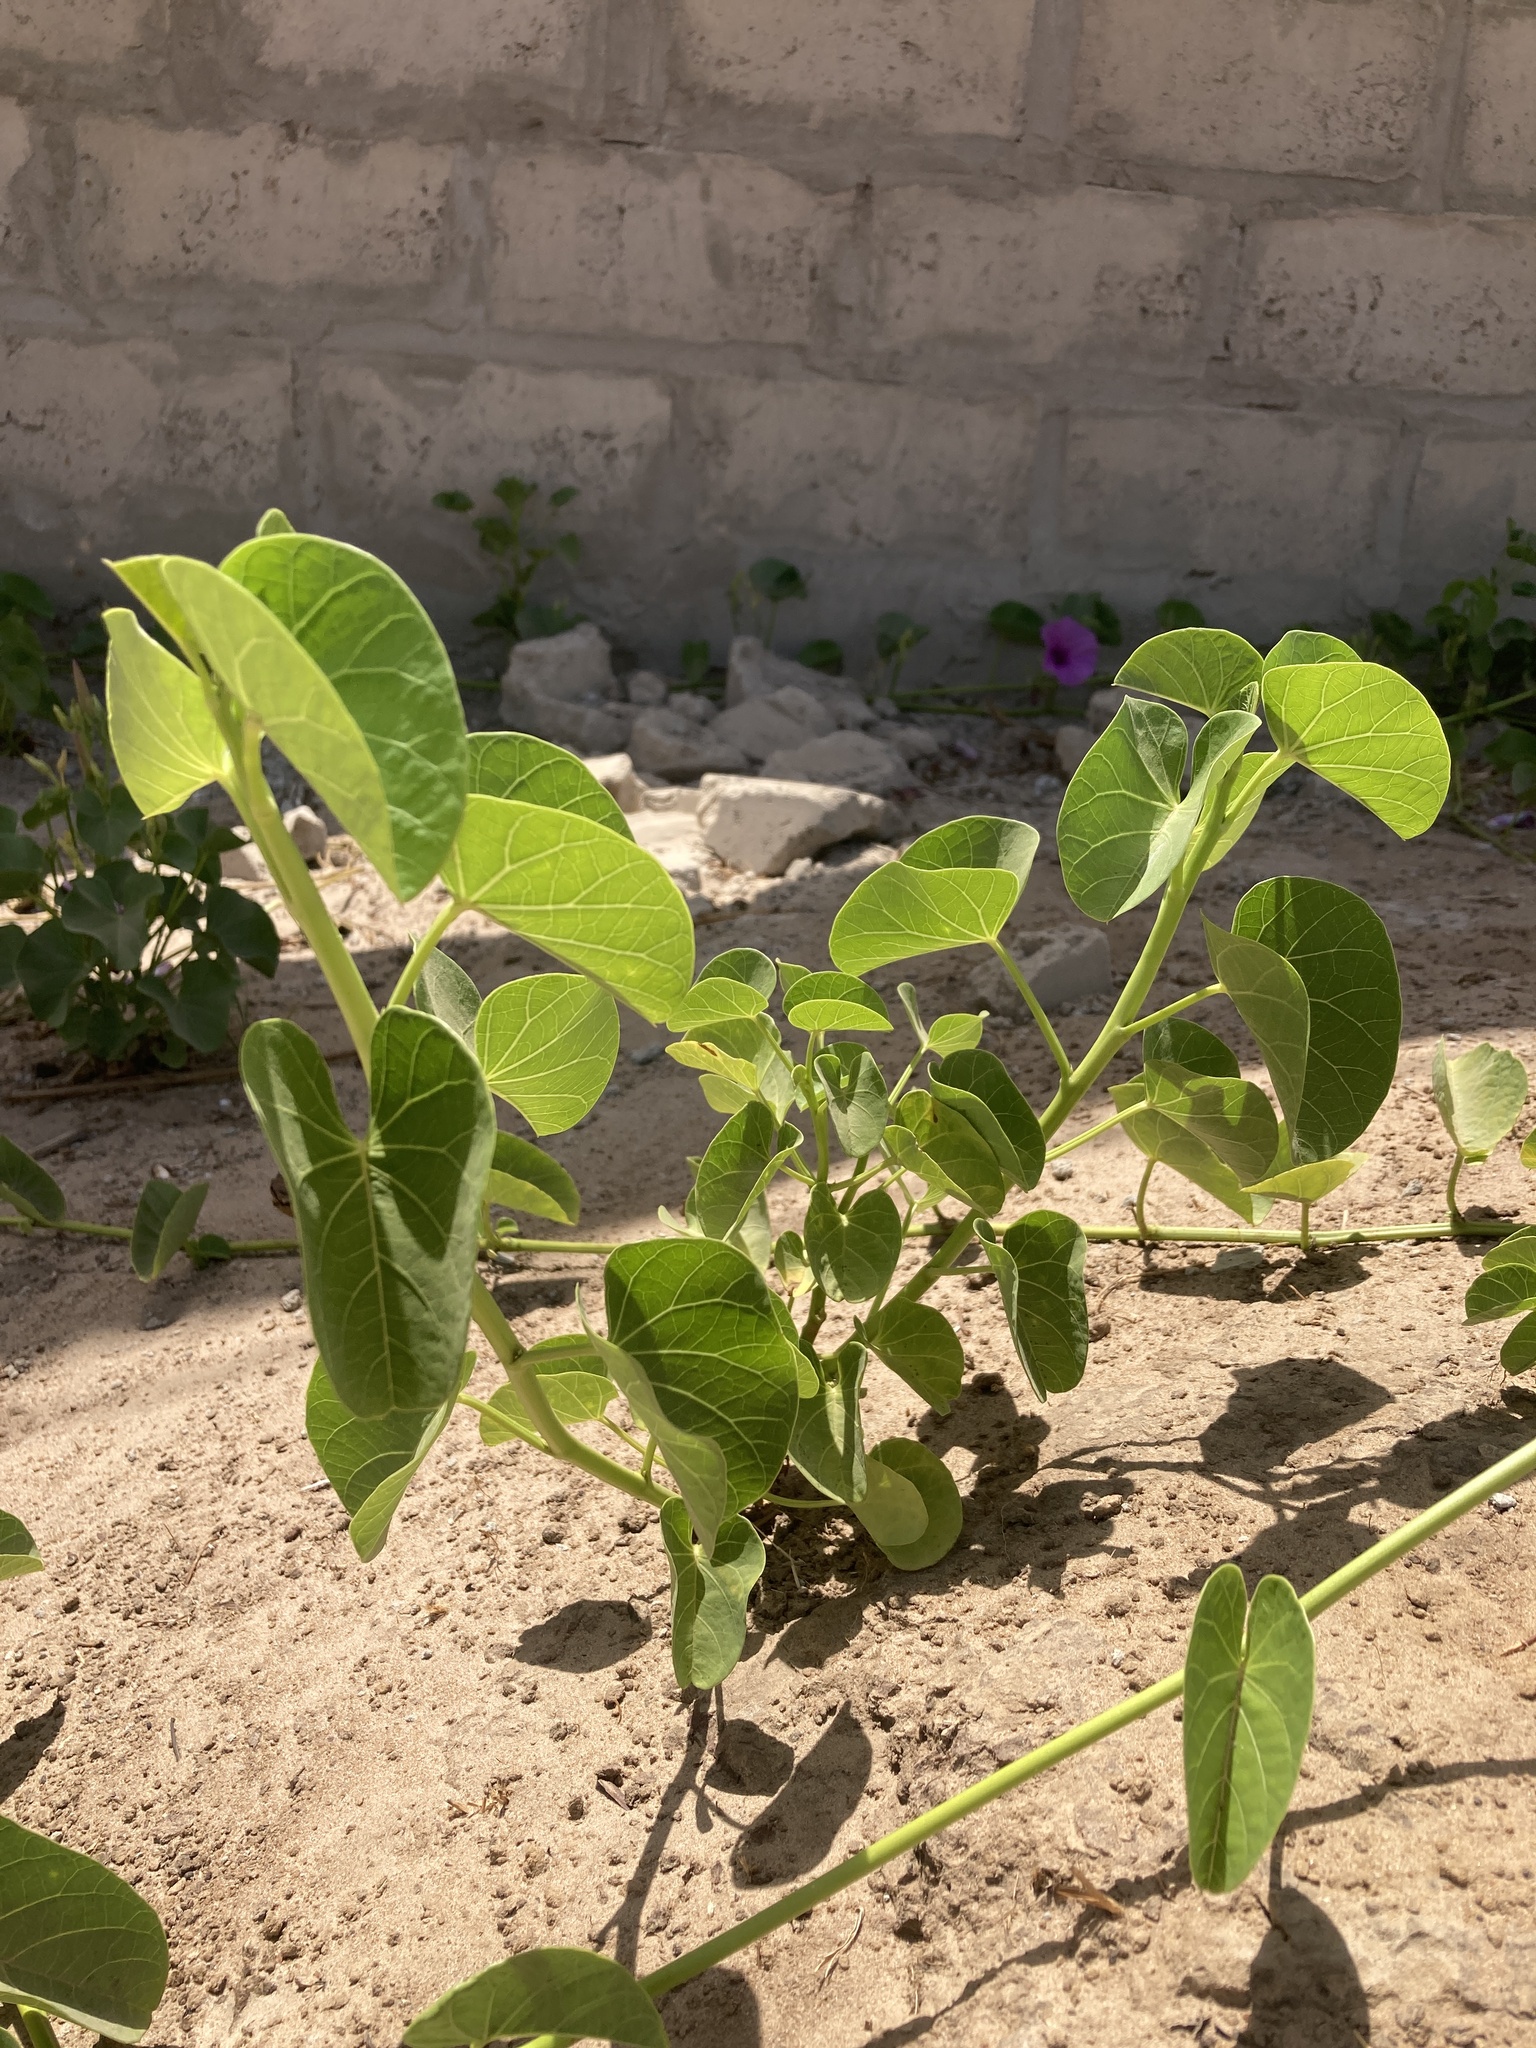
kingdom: Plantae
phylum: Tracheophyta
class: Magnoliopsida
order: Solanales
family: Convolvulaceae
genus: Ipomoea
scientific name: Ipomoea asarifolia
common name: Ginger-leaf morning-glory
